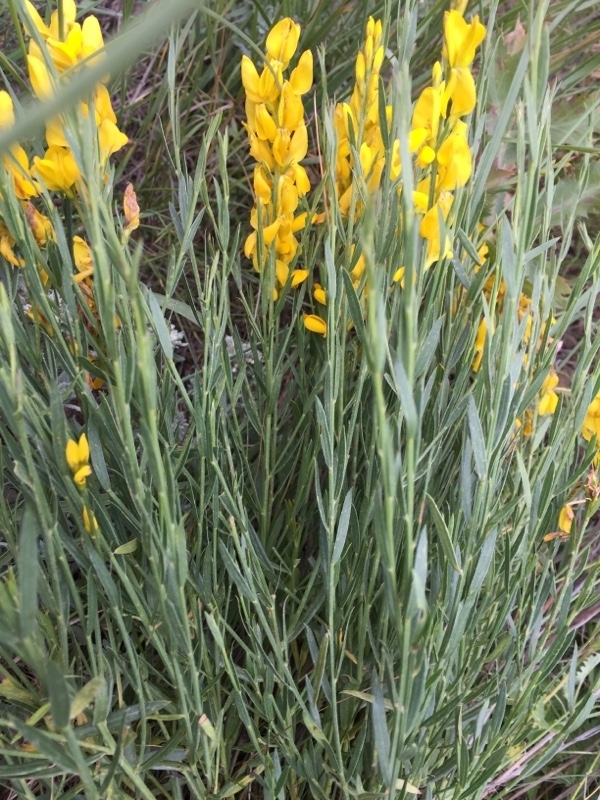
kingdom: Plantae
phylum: Tracheophyta
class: Magnoliopsida
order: Fabales
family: Fabaceae
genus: Genista
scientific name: Genista dracunculoides
